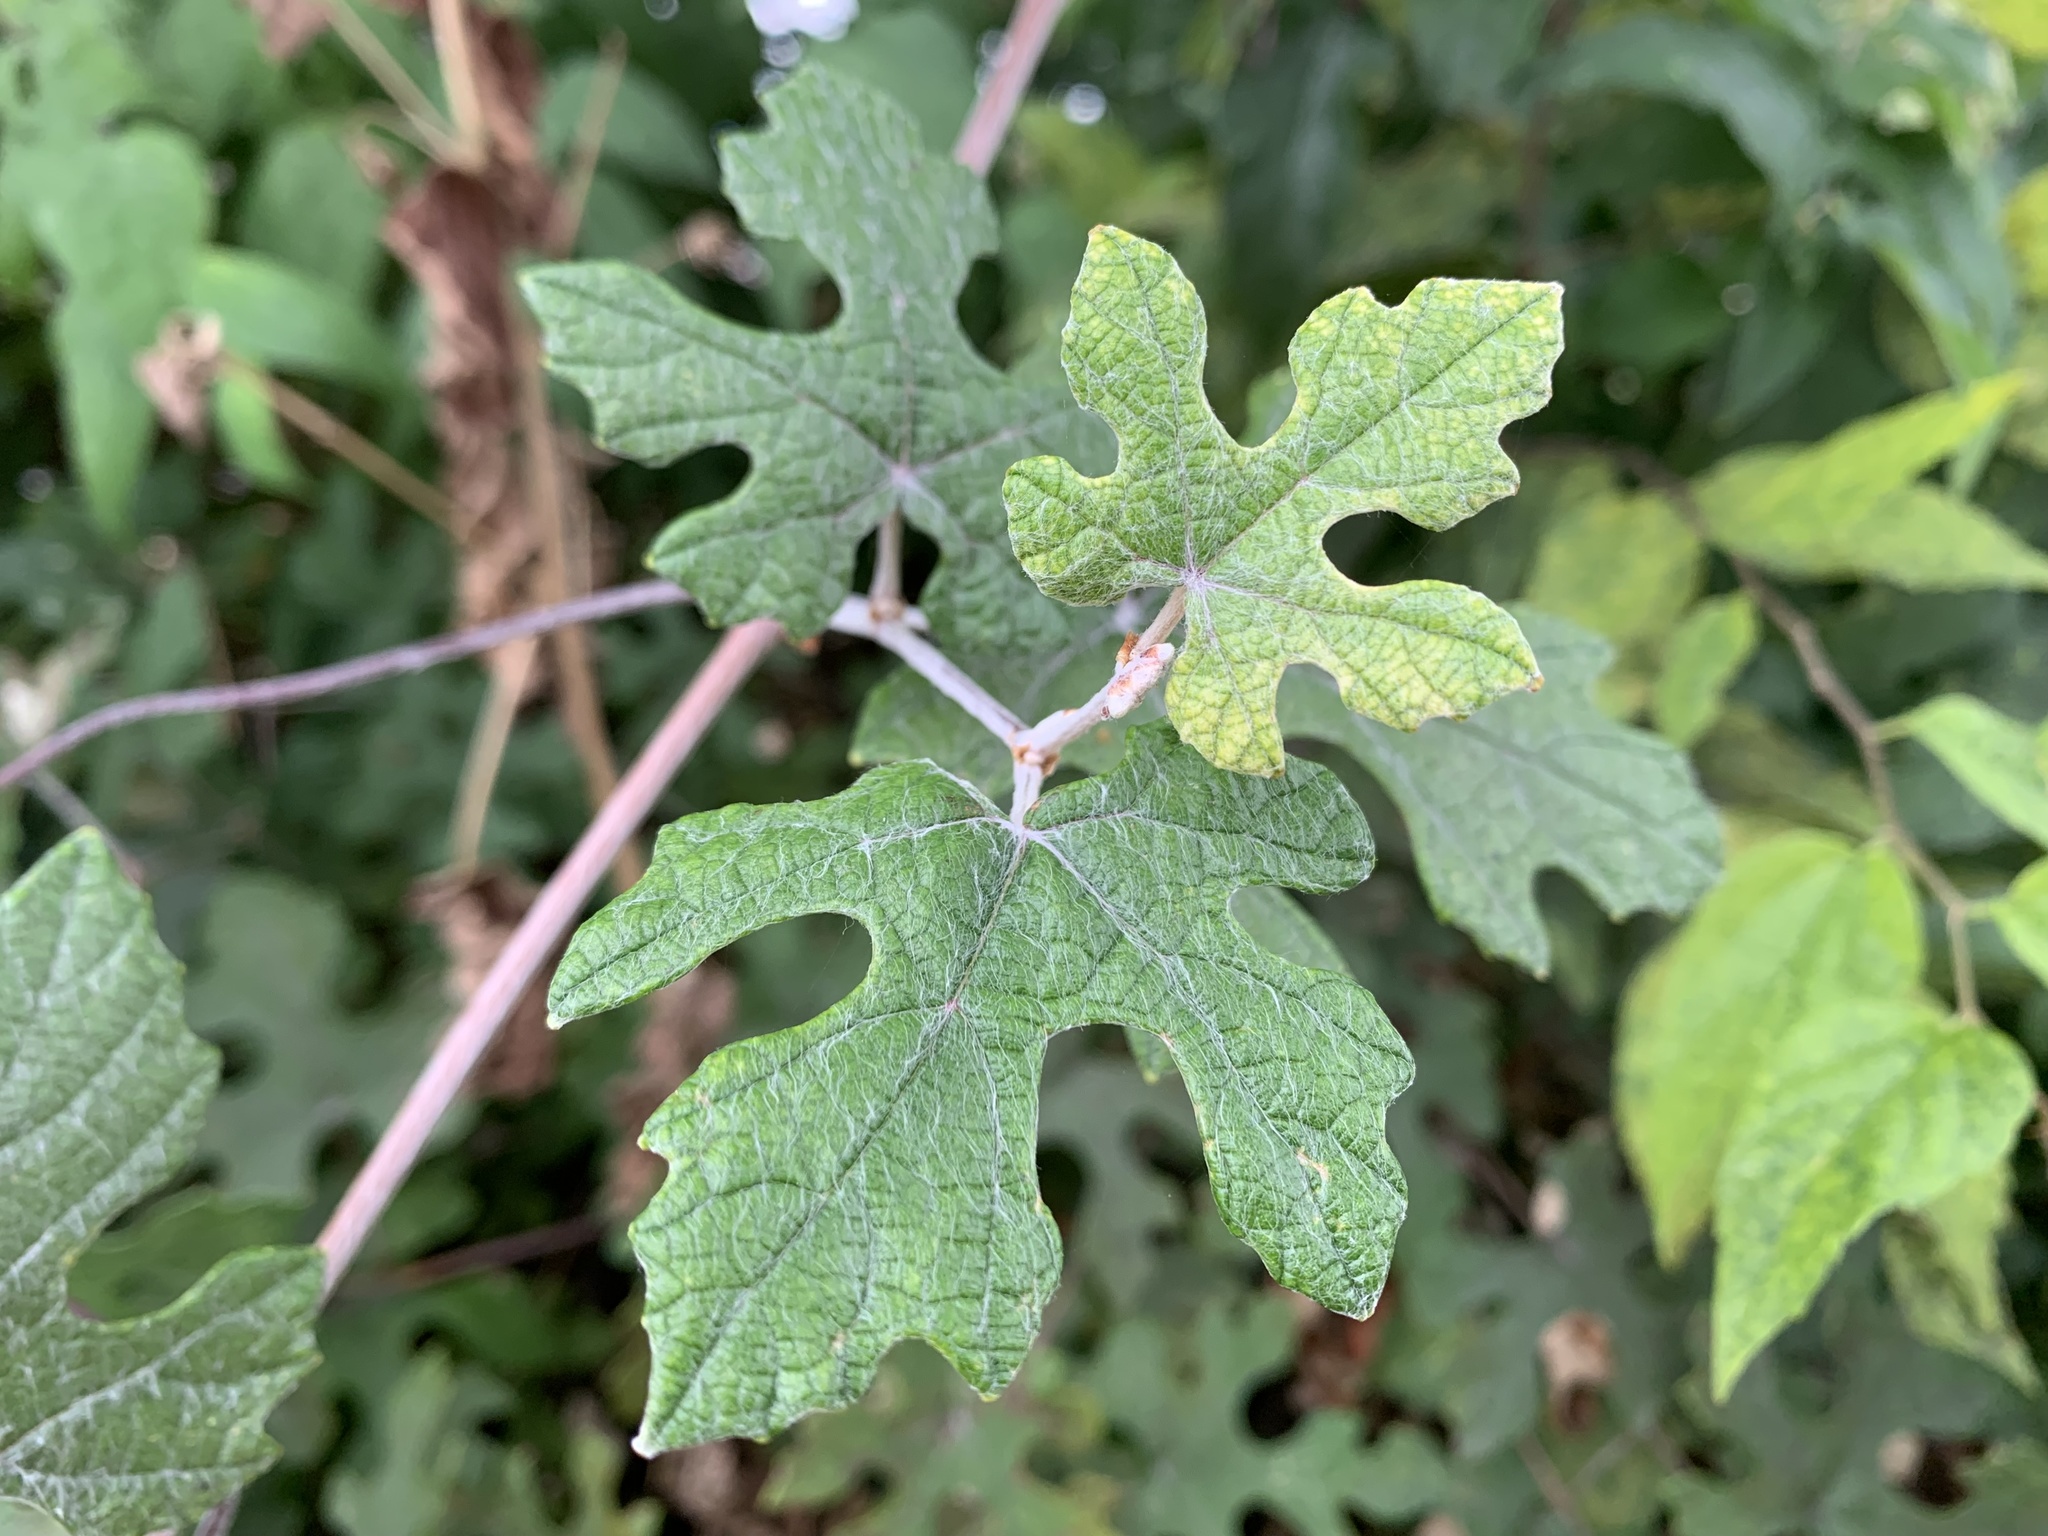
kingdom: Plantae
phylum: Tracheophyta
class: Magnoliopsida
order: Vitales
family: Vitaceae
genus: Vitis
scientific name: Vitis mustangensis
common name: Mustang grape
